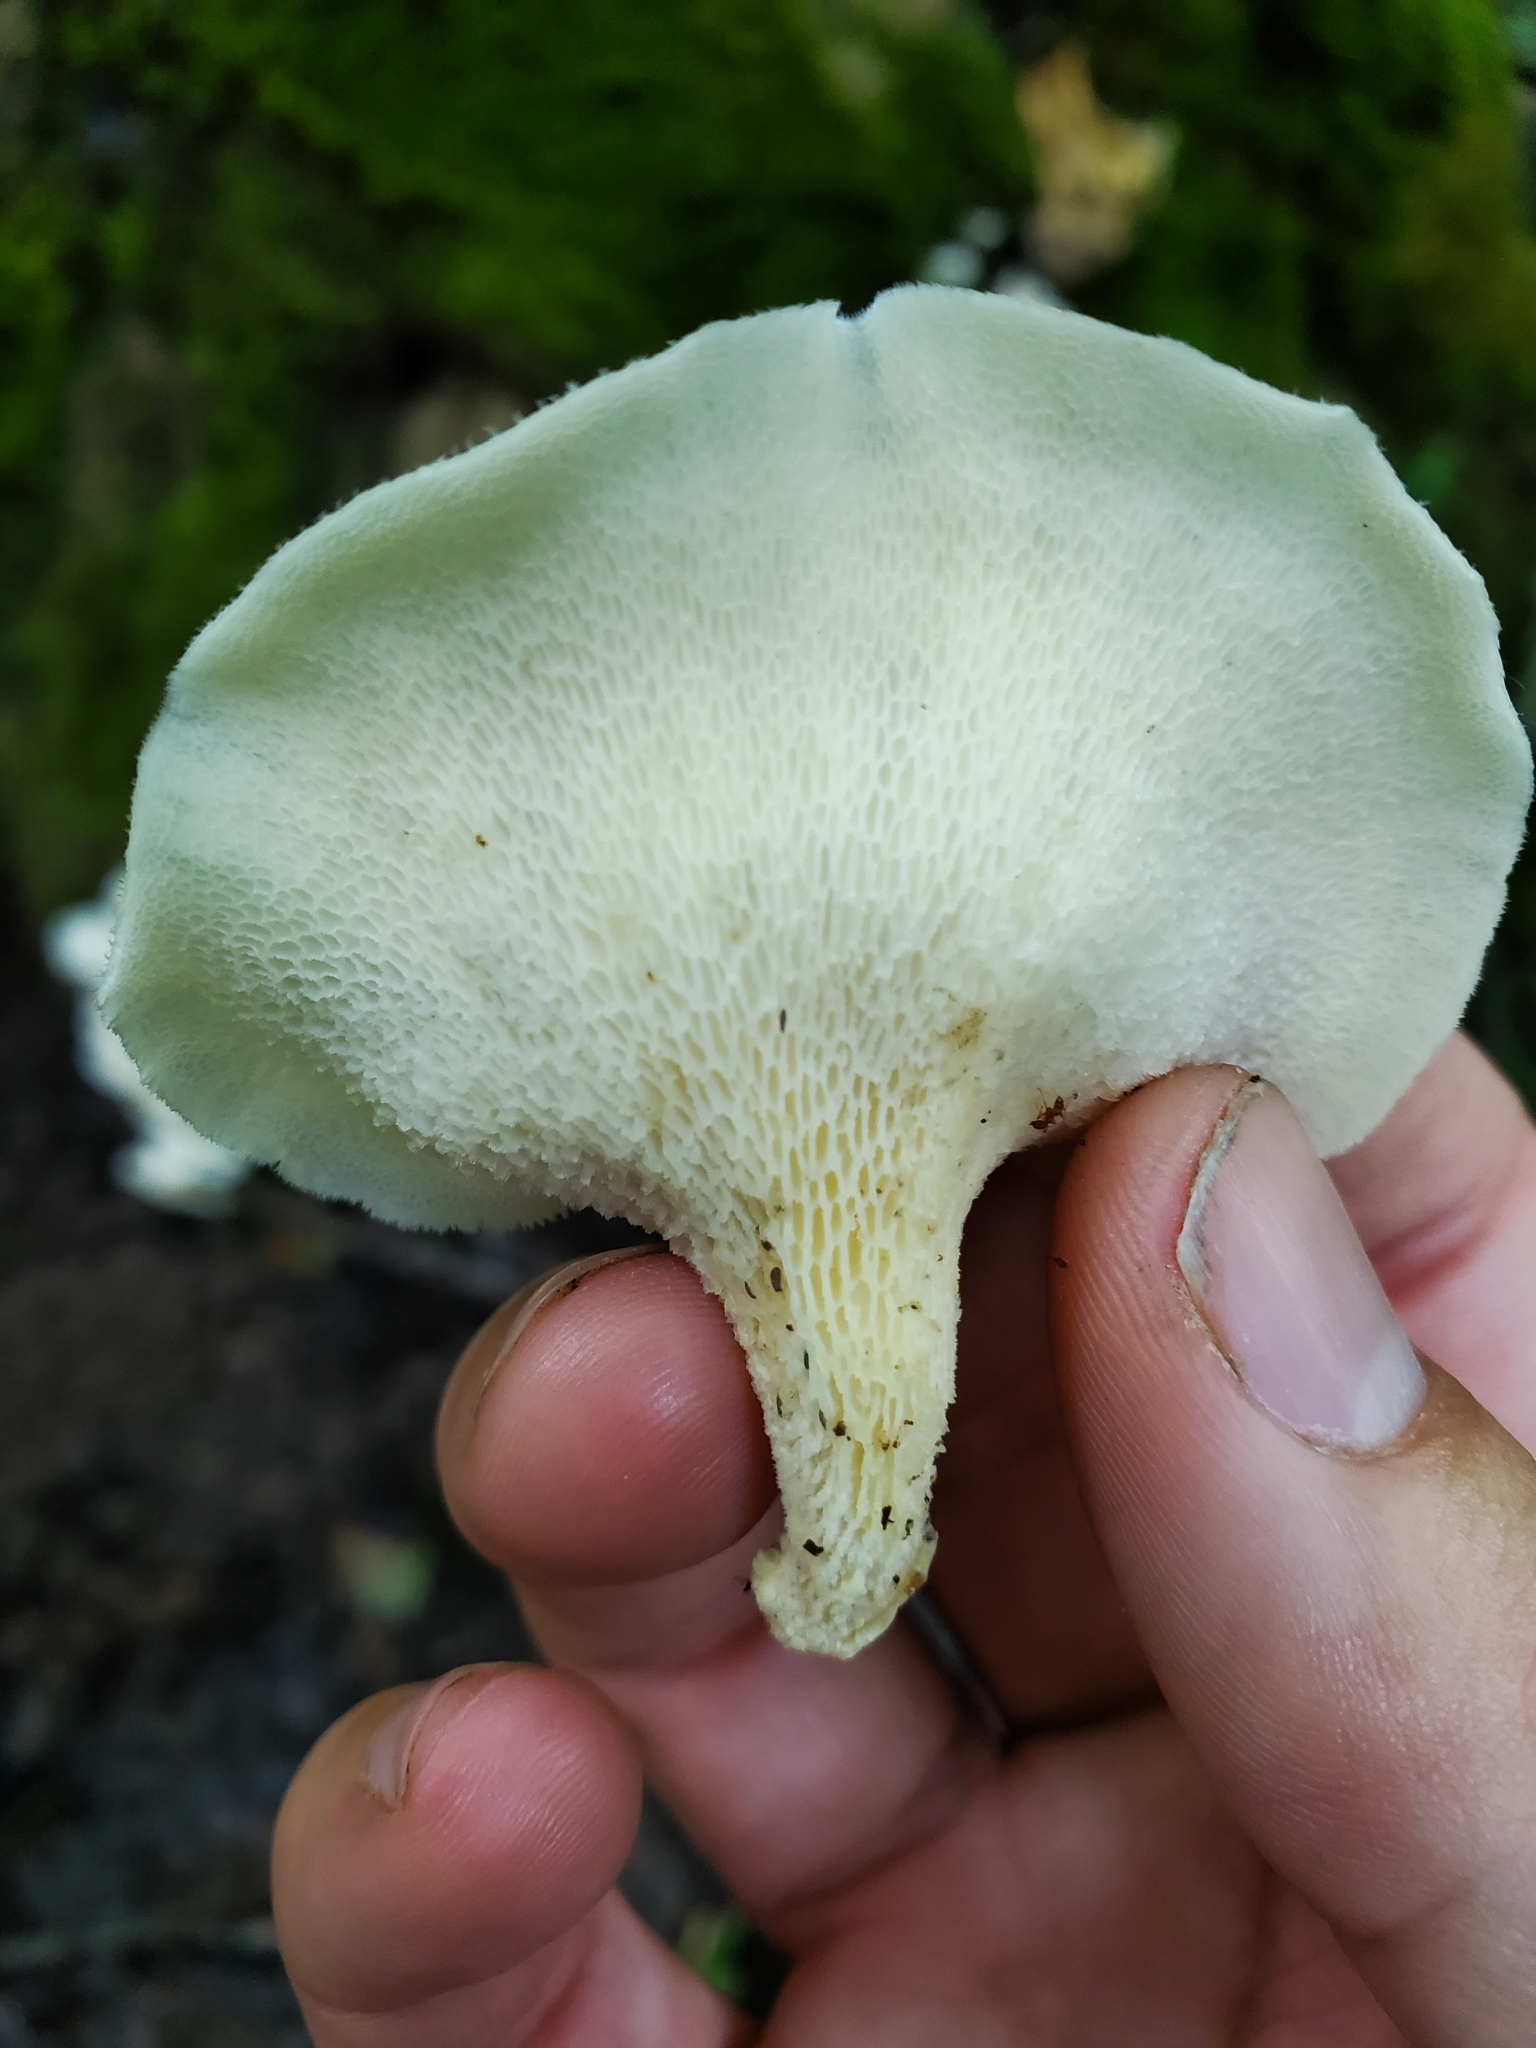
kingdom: Fungi
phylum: Basidiomycota
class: Agaricomycetes
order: Polyporales
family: Polyporaceae
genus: Favolus
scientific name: Favolus tenuiculus
